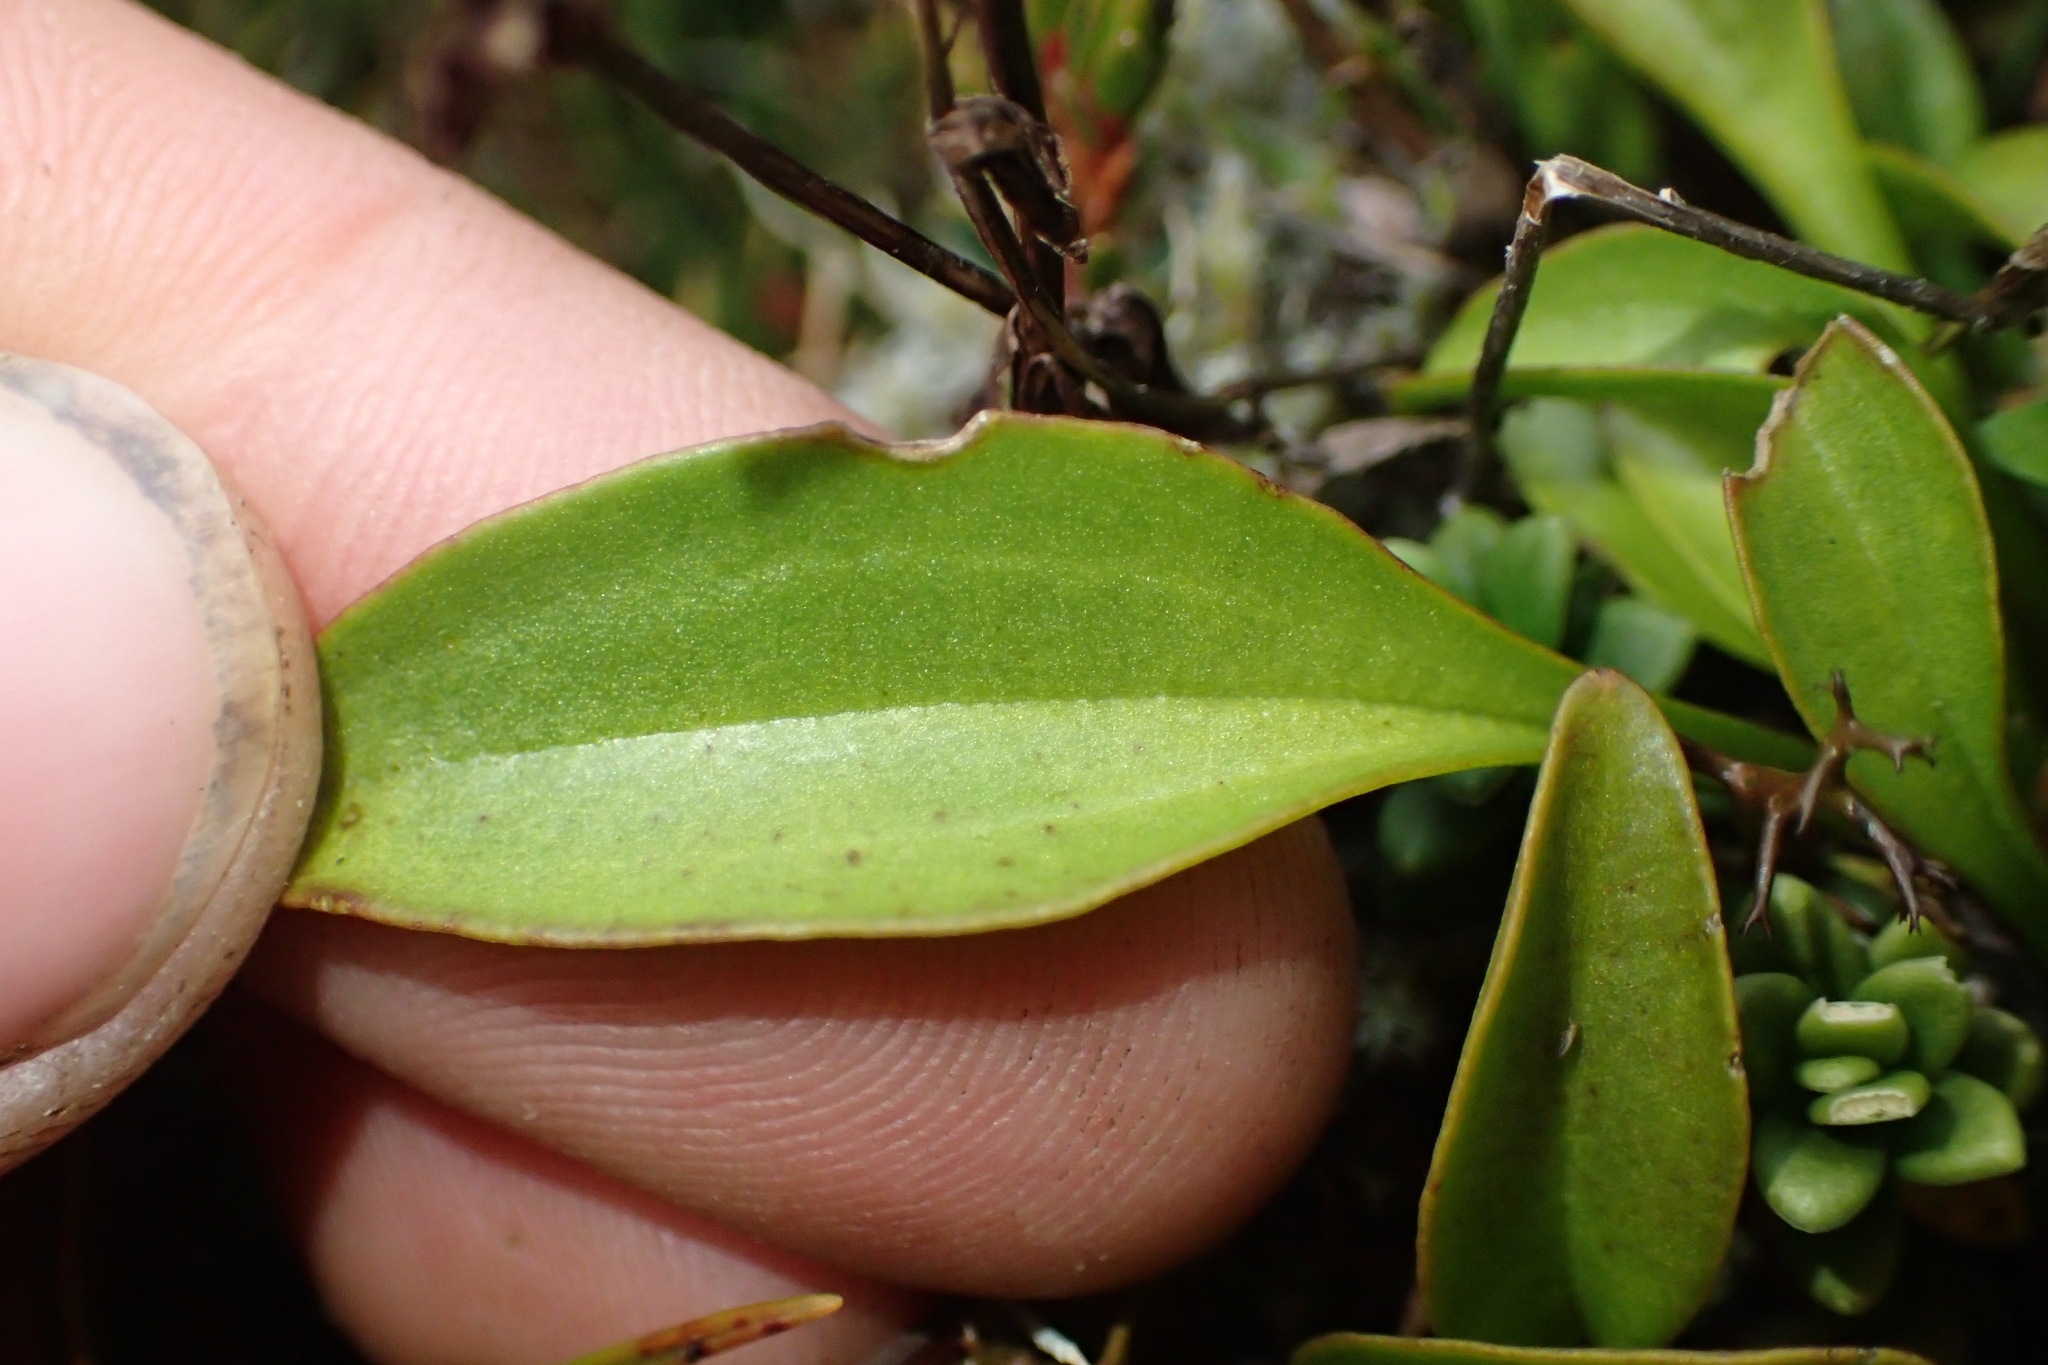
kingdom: Plantae
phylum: Tracheophyta
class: Magnoliopsida
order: Gentianales
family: Gentianaceae
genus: Gentianella
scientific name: Gentianella bellidifolia
